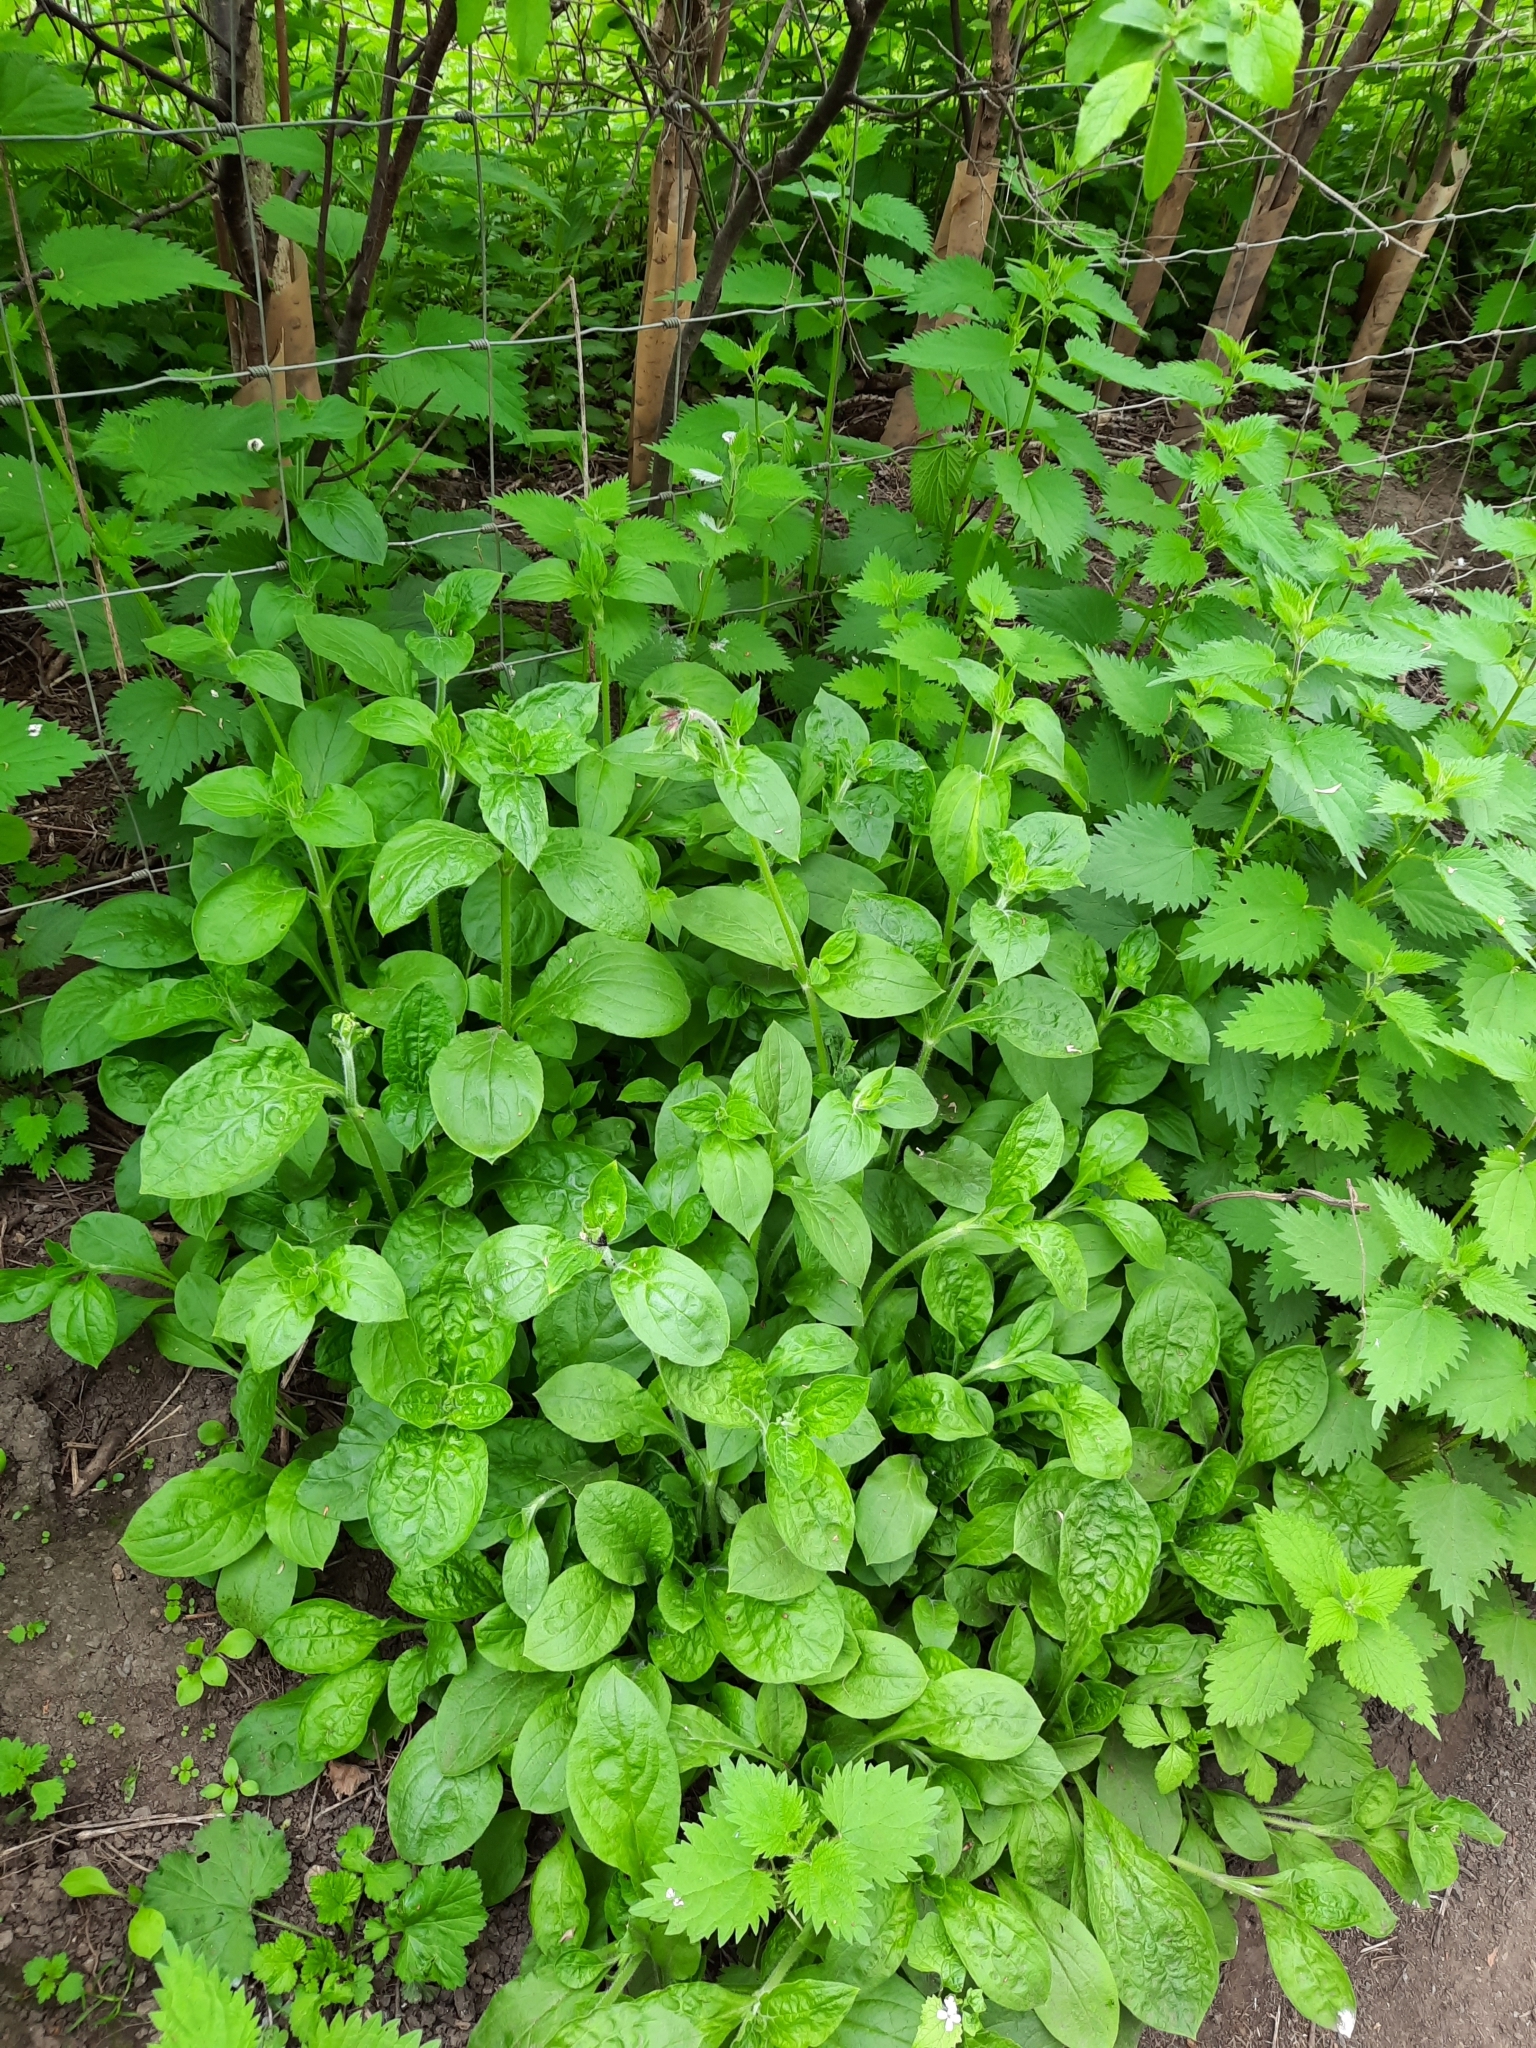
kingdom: Plantae
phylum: Tracheophyta
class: Magnoliopsida
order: Caryophyllales
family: Caryophyllaceae
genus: Silene
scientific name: Silene dioica
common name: Red campion
